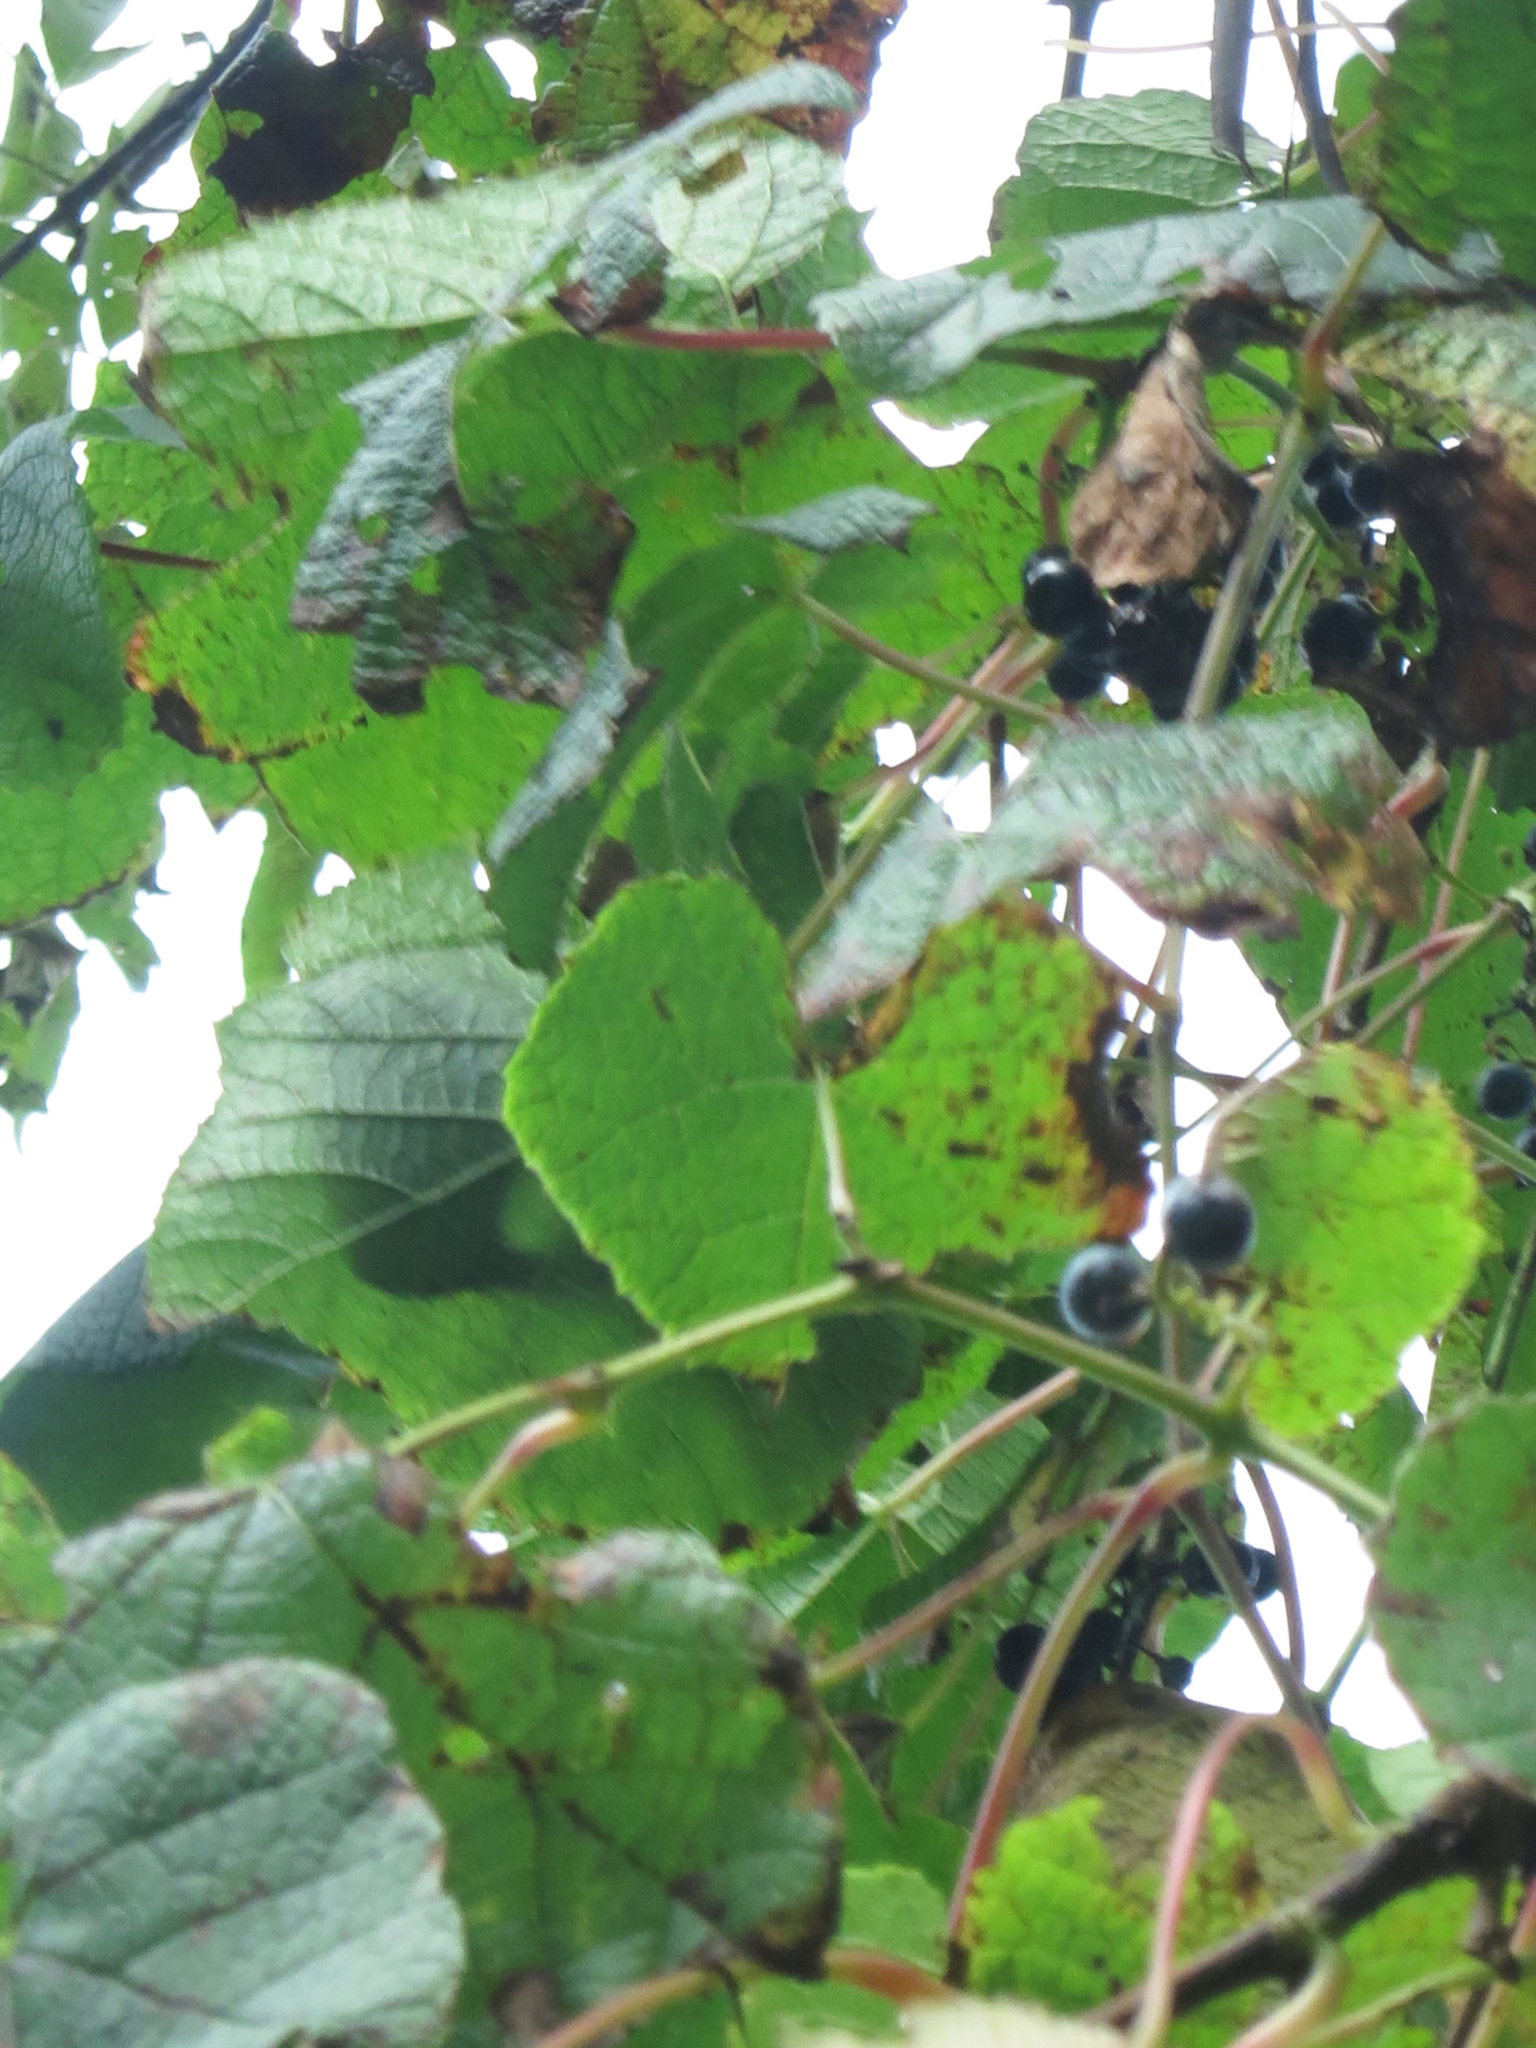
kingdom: Plantae
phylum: Tracheophyta
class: Magnoliopsida
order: Vitales
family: Vitaceae
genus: Vitis
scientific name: Vitis amurensis
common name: Amur grape
